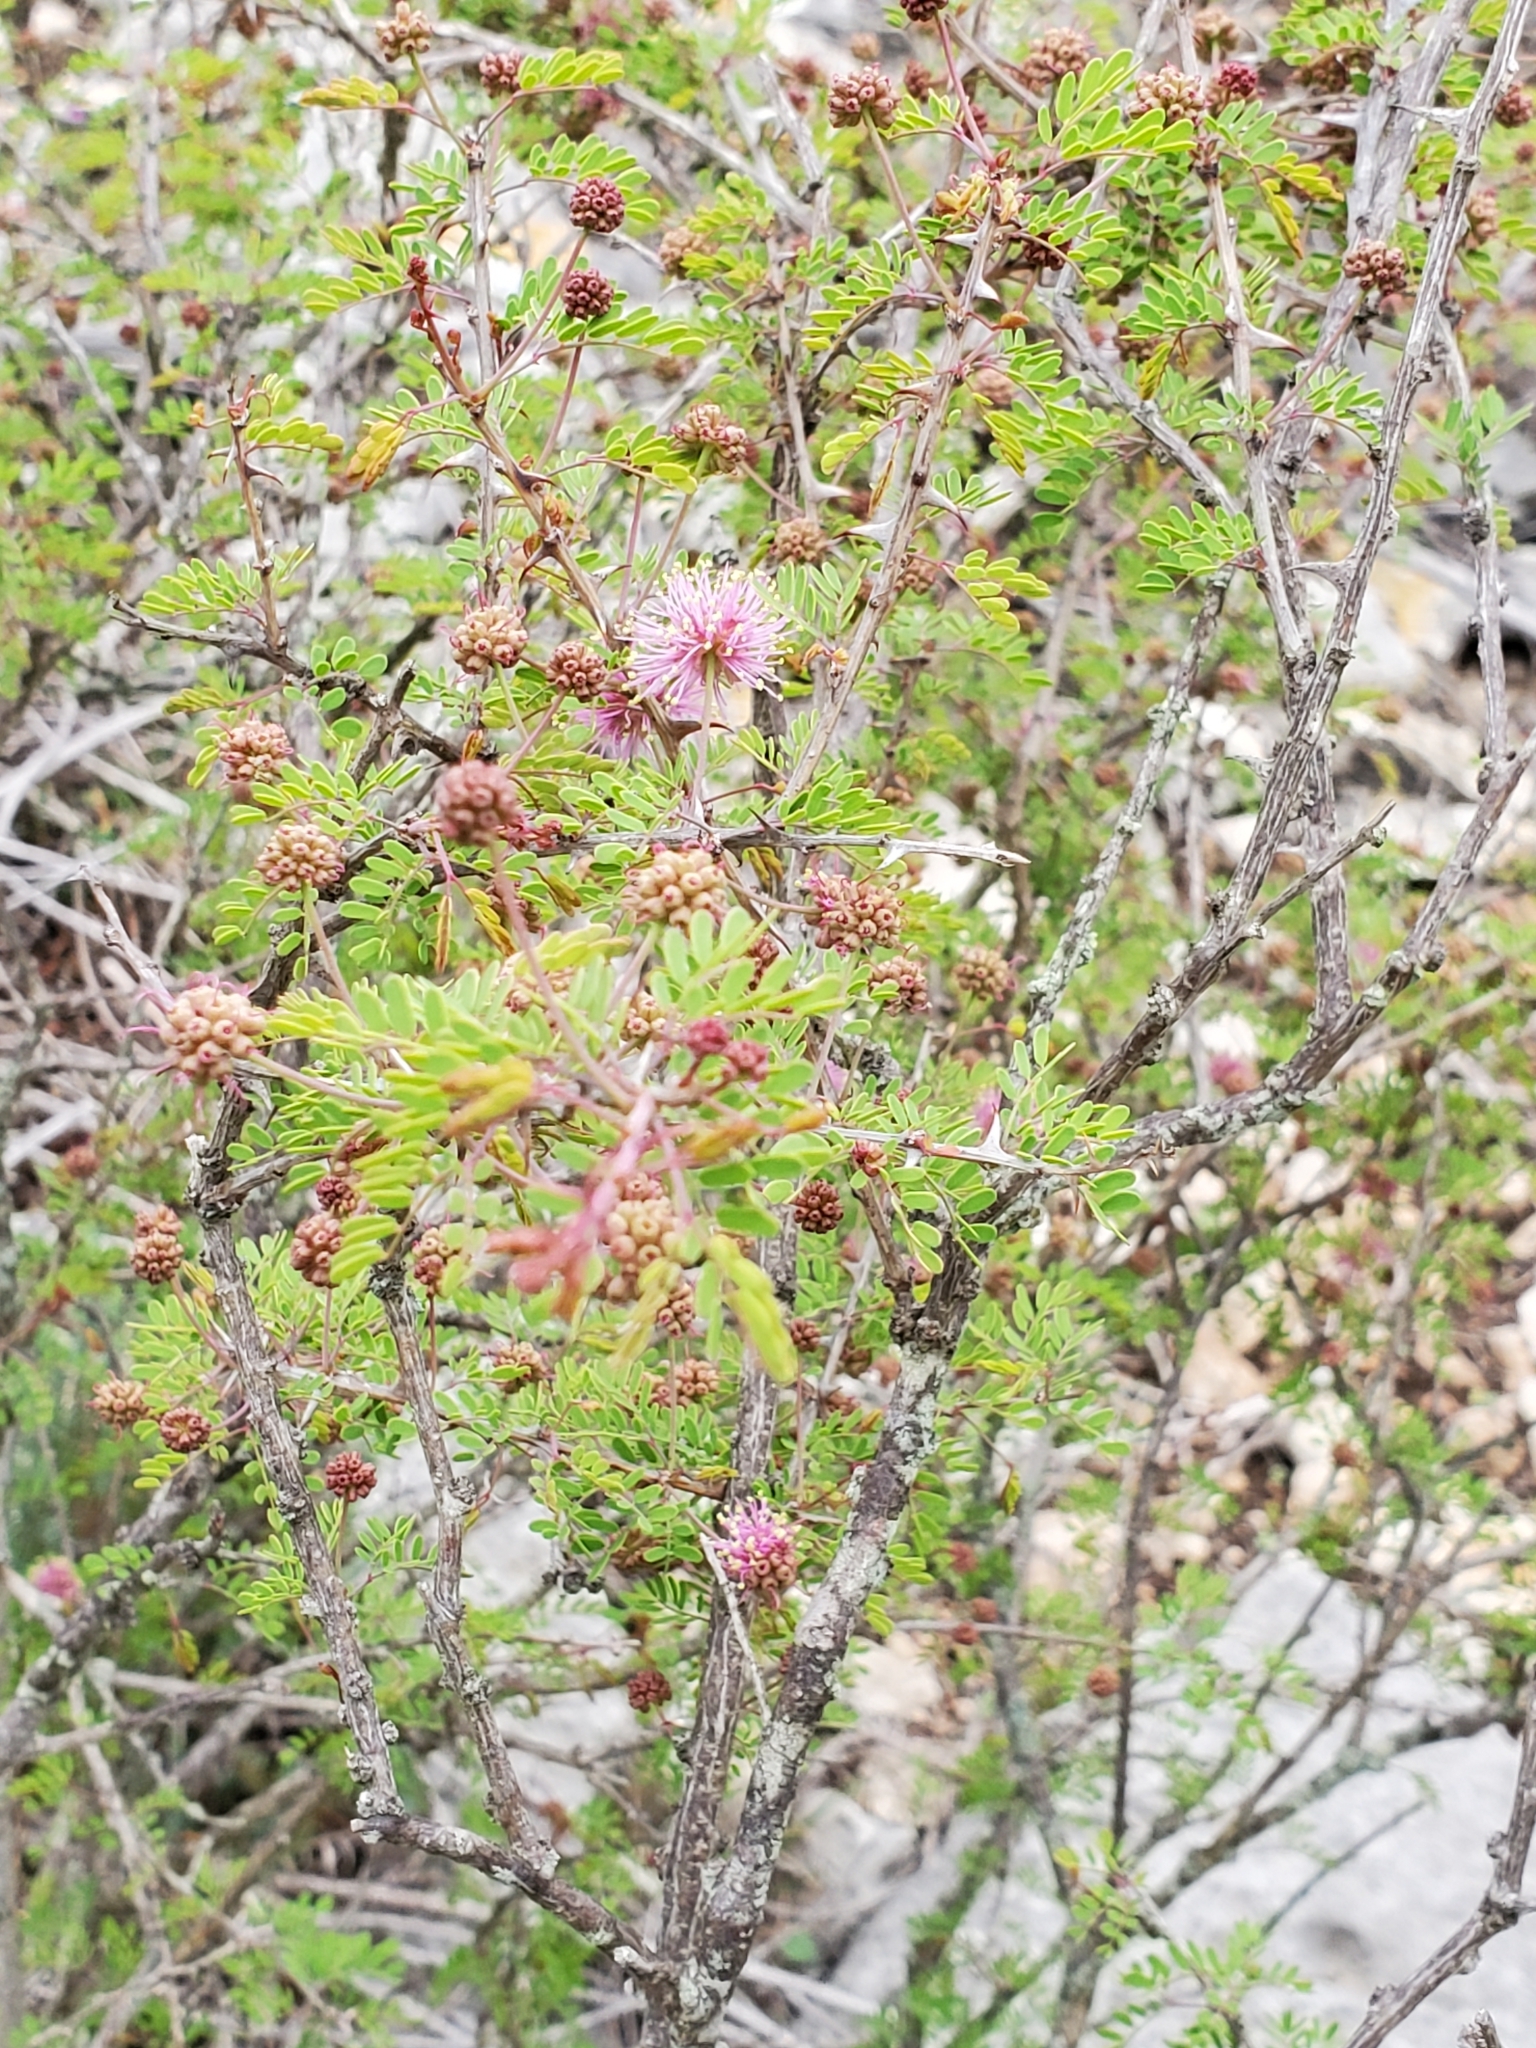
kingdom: Plantae
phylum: Tracheophyta
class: Magnoliopsida
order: Fabales
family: Fabaceae
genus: Mimosa
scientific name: Mimosa borealis
